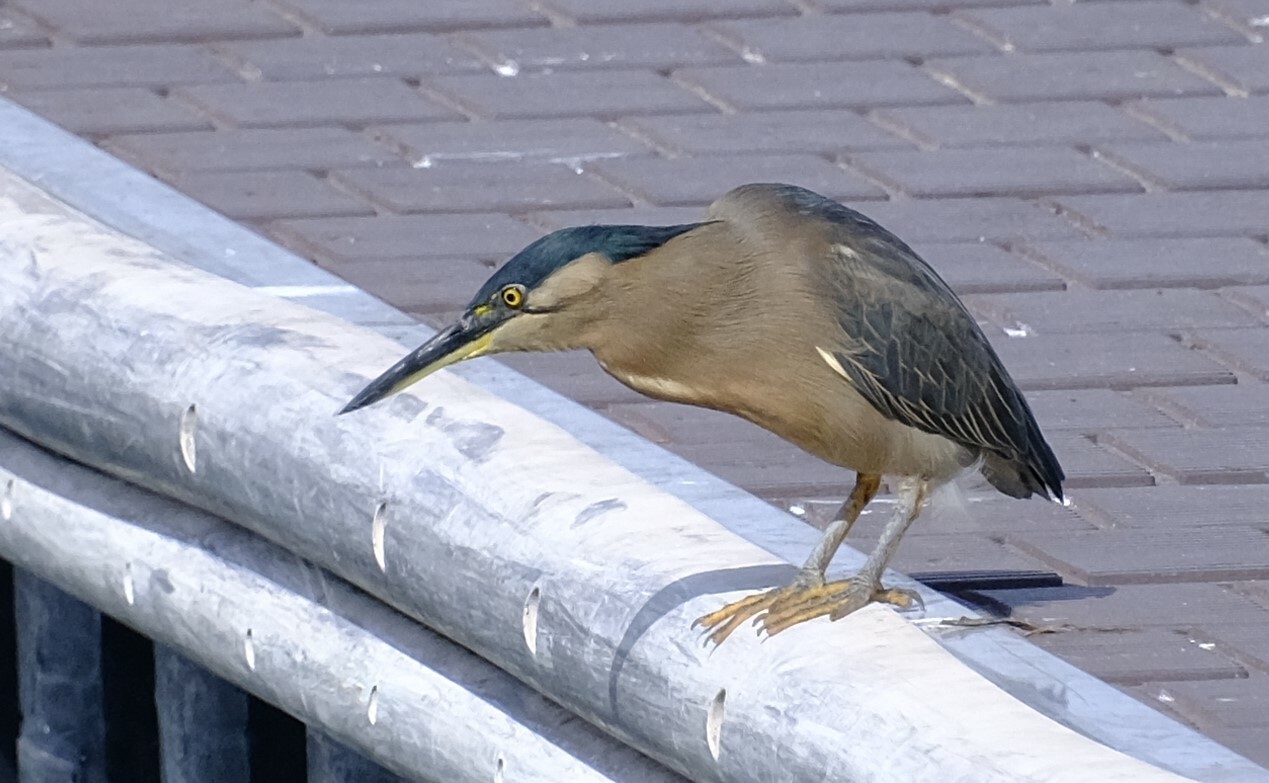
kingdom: Animalia
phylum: Chordata
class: Aves
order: Pelecaniformes
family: Ardeidae
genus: Butorides
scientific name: Butorides striata
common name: Striated heron
